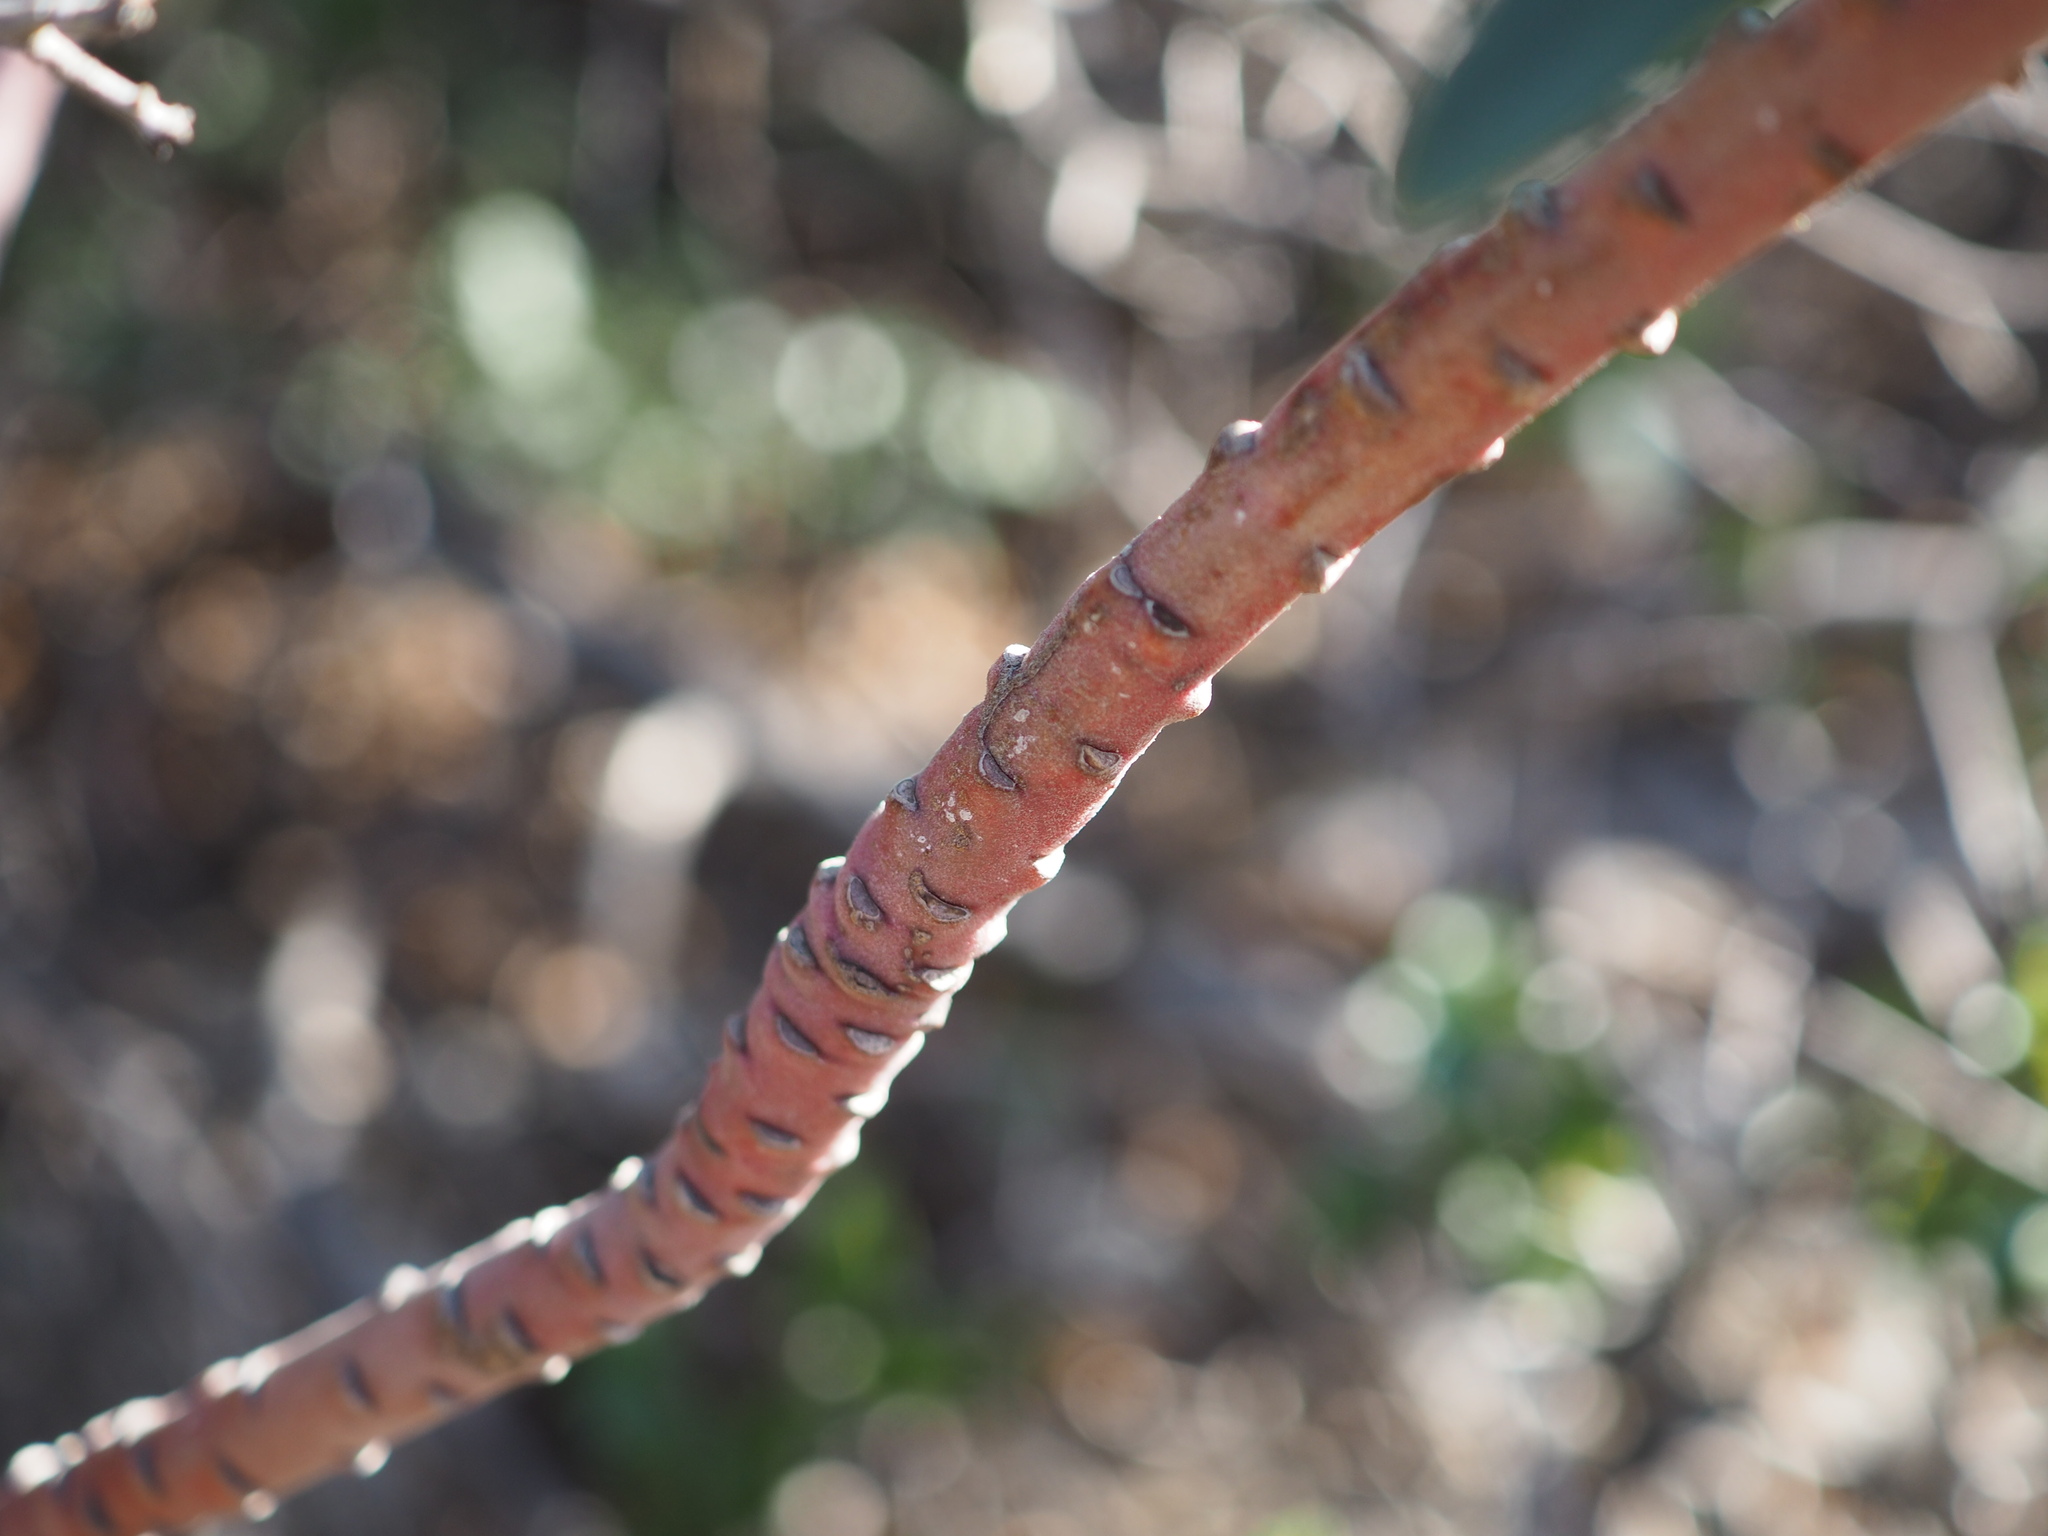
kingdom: Plantae
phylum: Tracheophyta
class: Magnoliopsida
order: Malpighiales
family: Euphorbiaceae
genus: Euphorbia
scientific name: Euphorbia characias
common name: Mediterranean spurge
